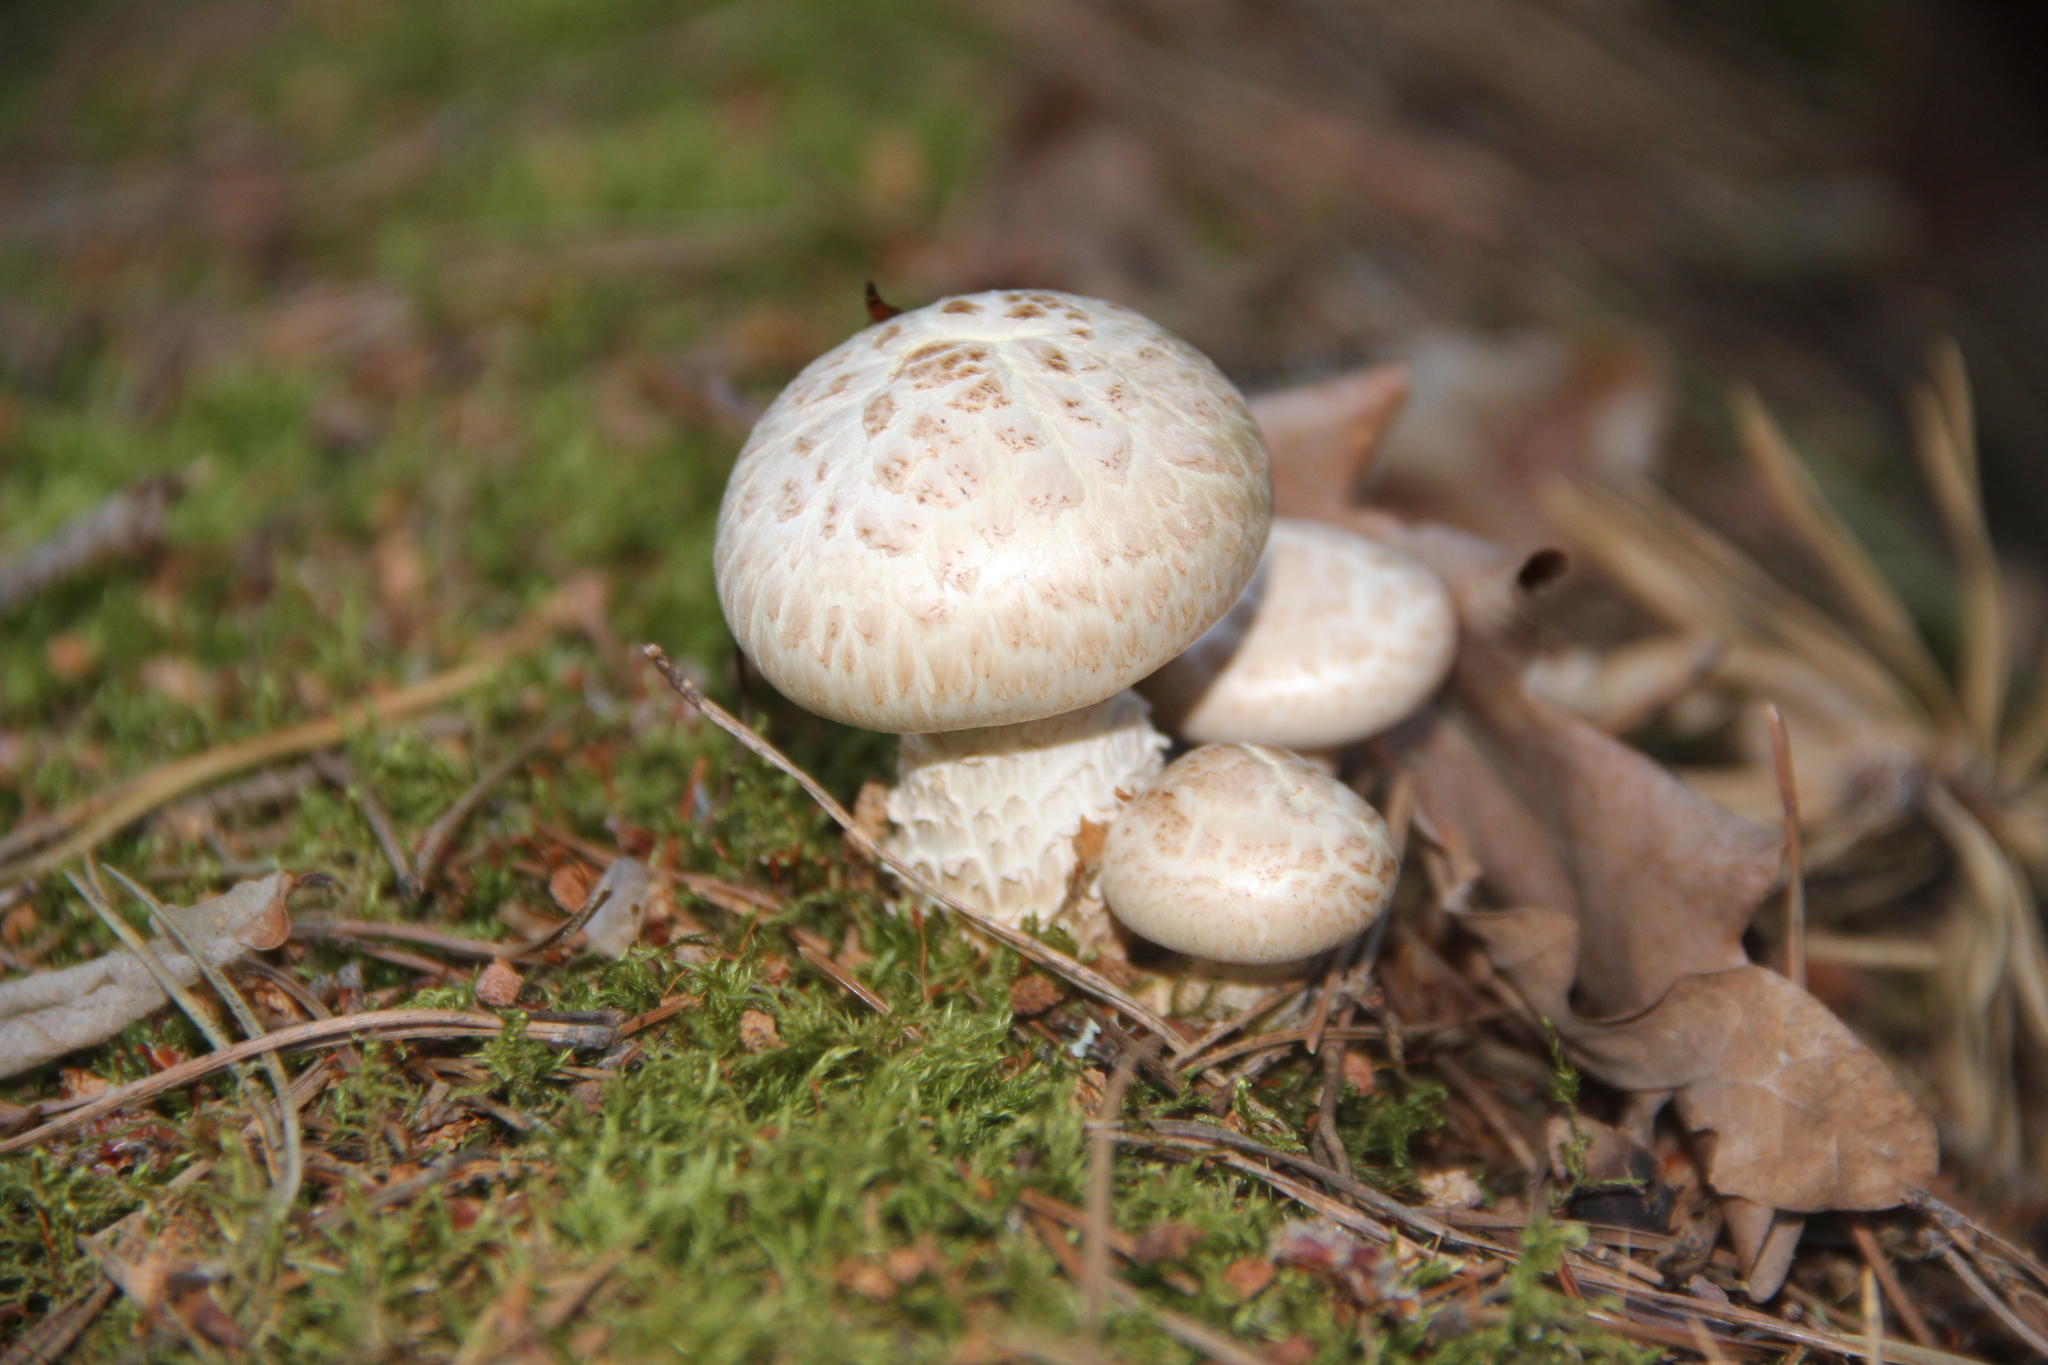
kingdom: Fungi
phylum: Basidiomycota
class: Agaricomycetes
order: Gloeophyllales
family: Gloeophyllaceae
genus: Neolentinus
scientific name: Neolentinus lepideus
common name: Scaly sawgill
